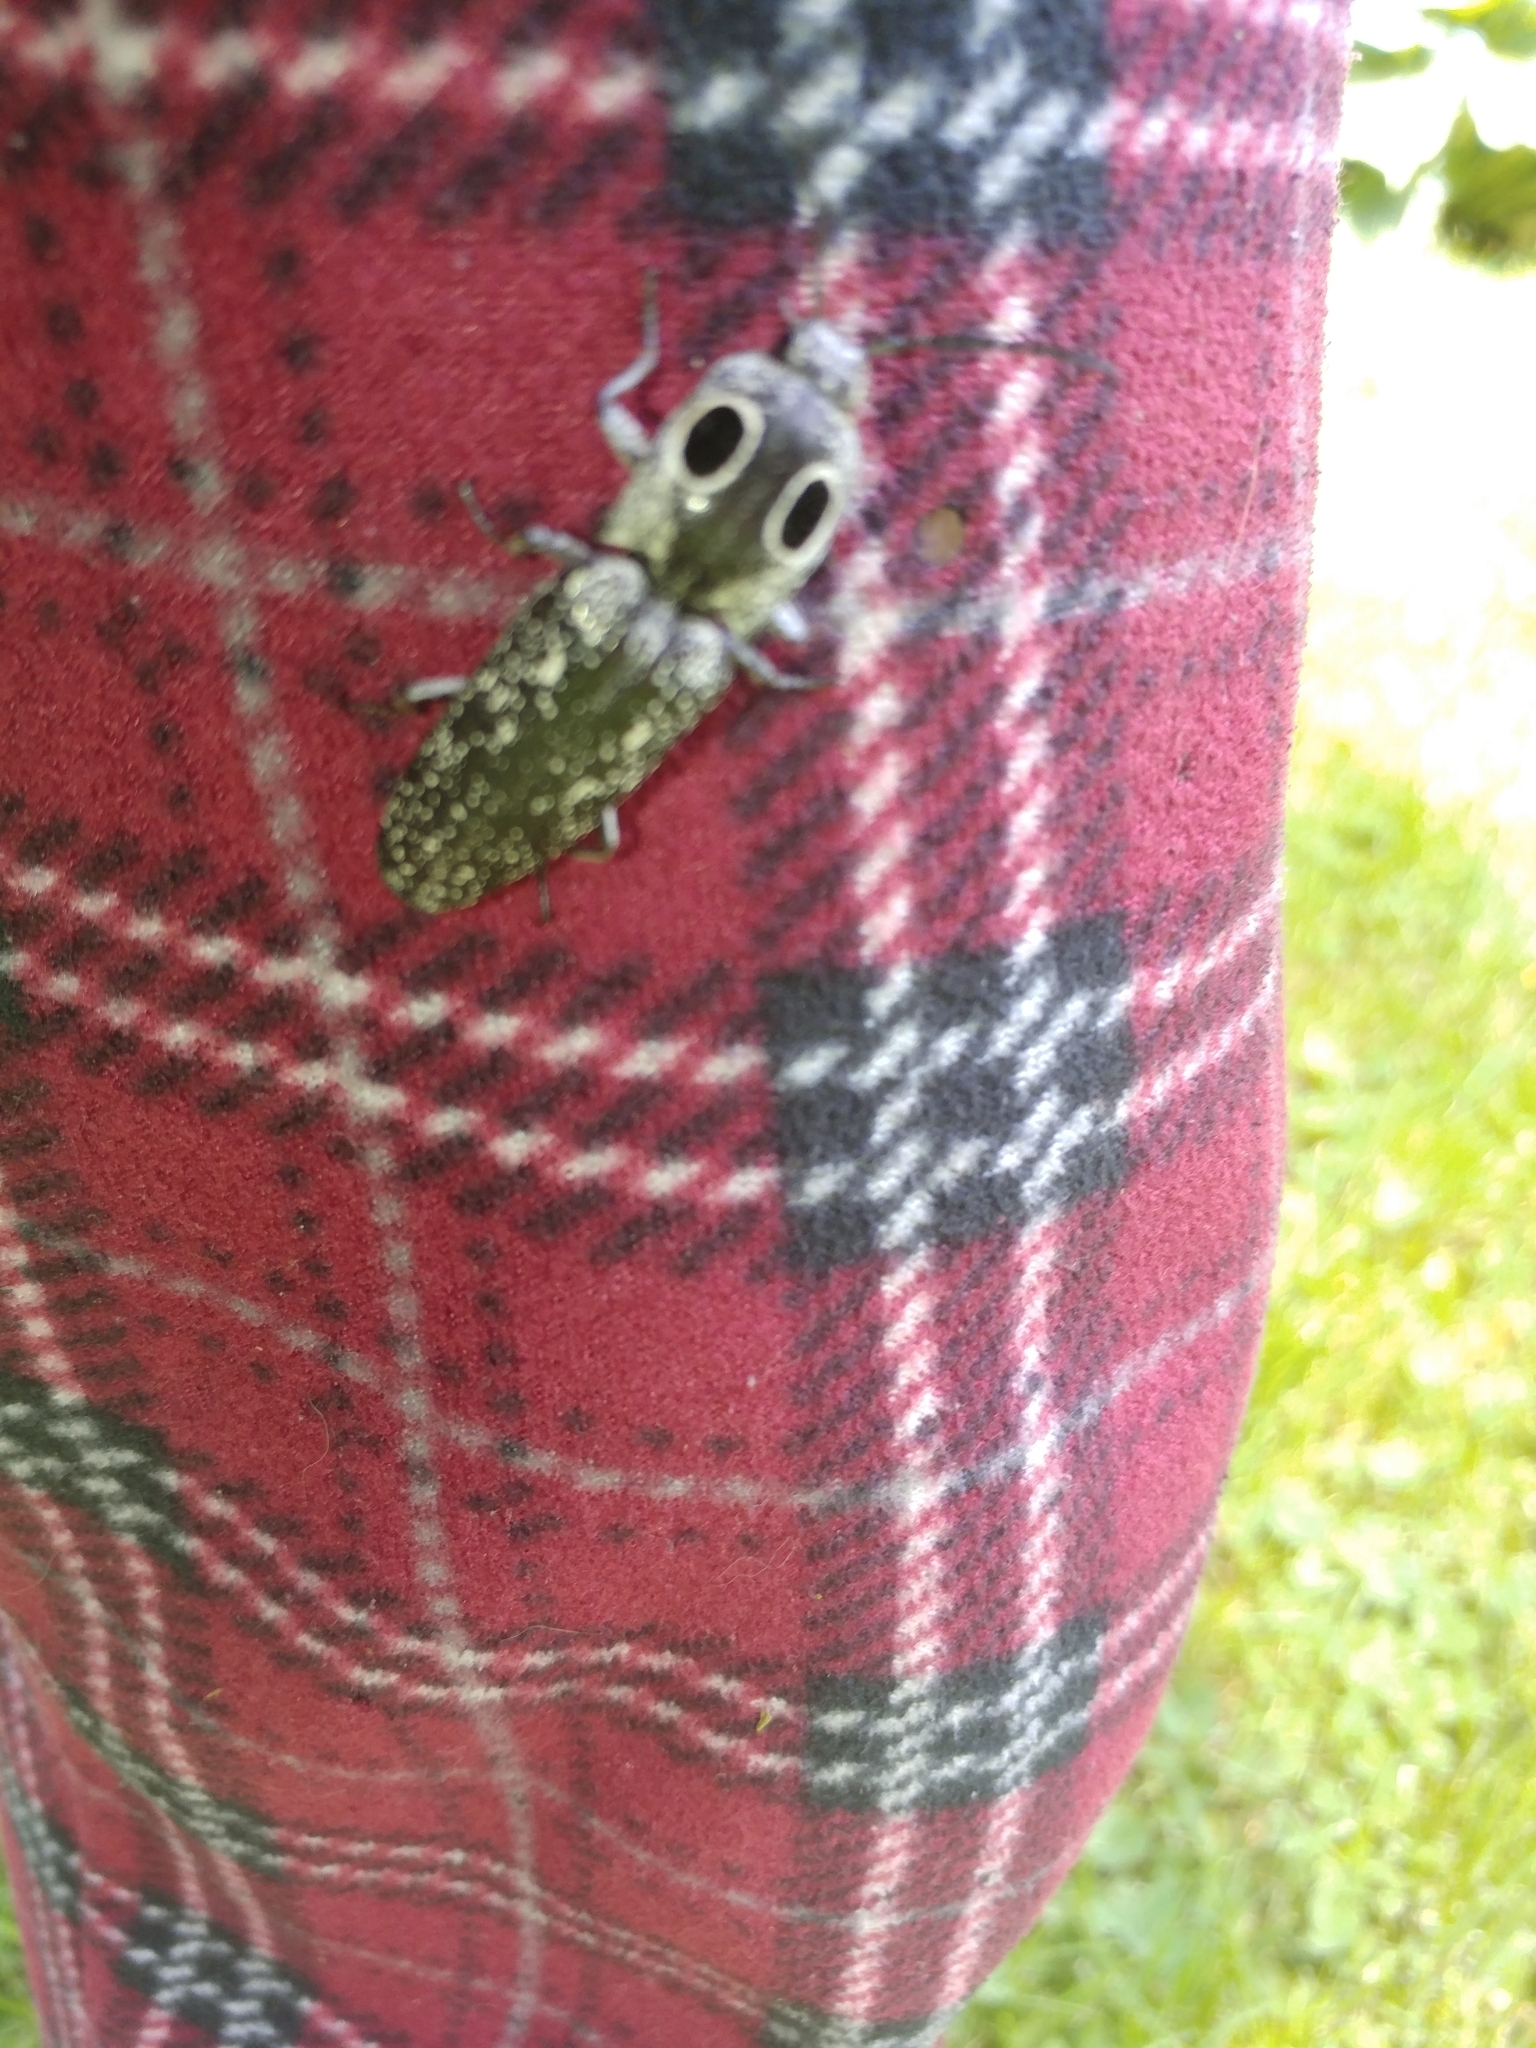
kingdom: Animalia
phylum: Arthropoda
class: Insecta
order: Coleoptera
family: Elateridae
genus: Alaus
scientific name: Alaus oculatus
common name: Eastern eyed click beetle
